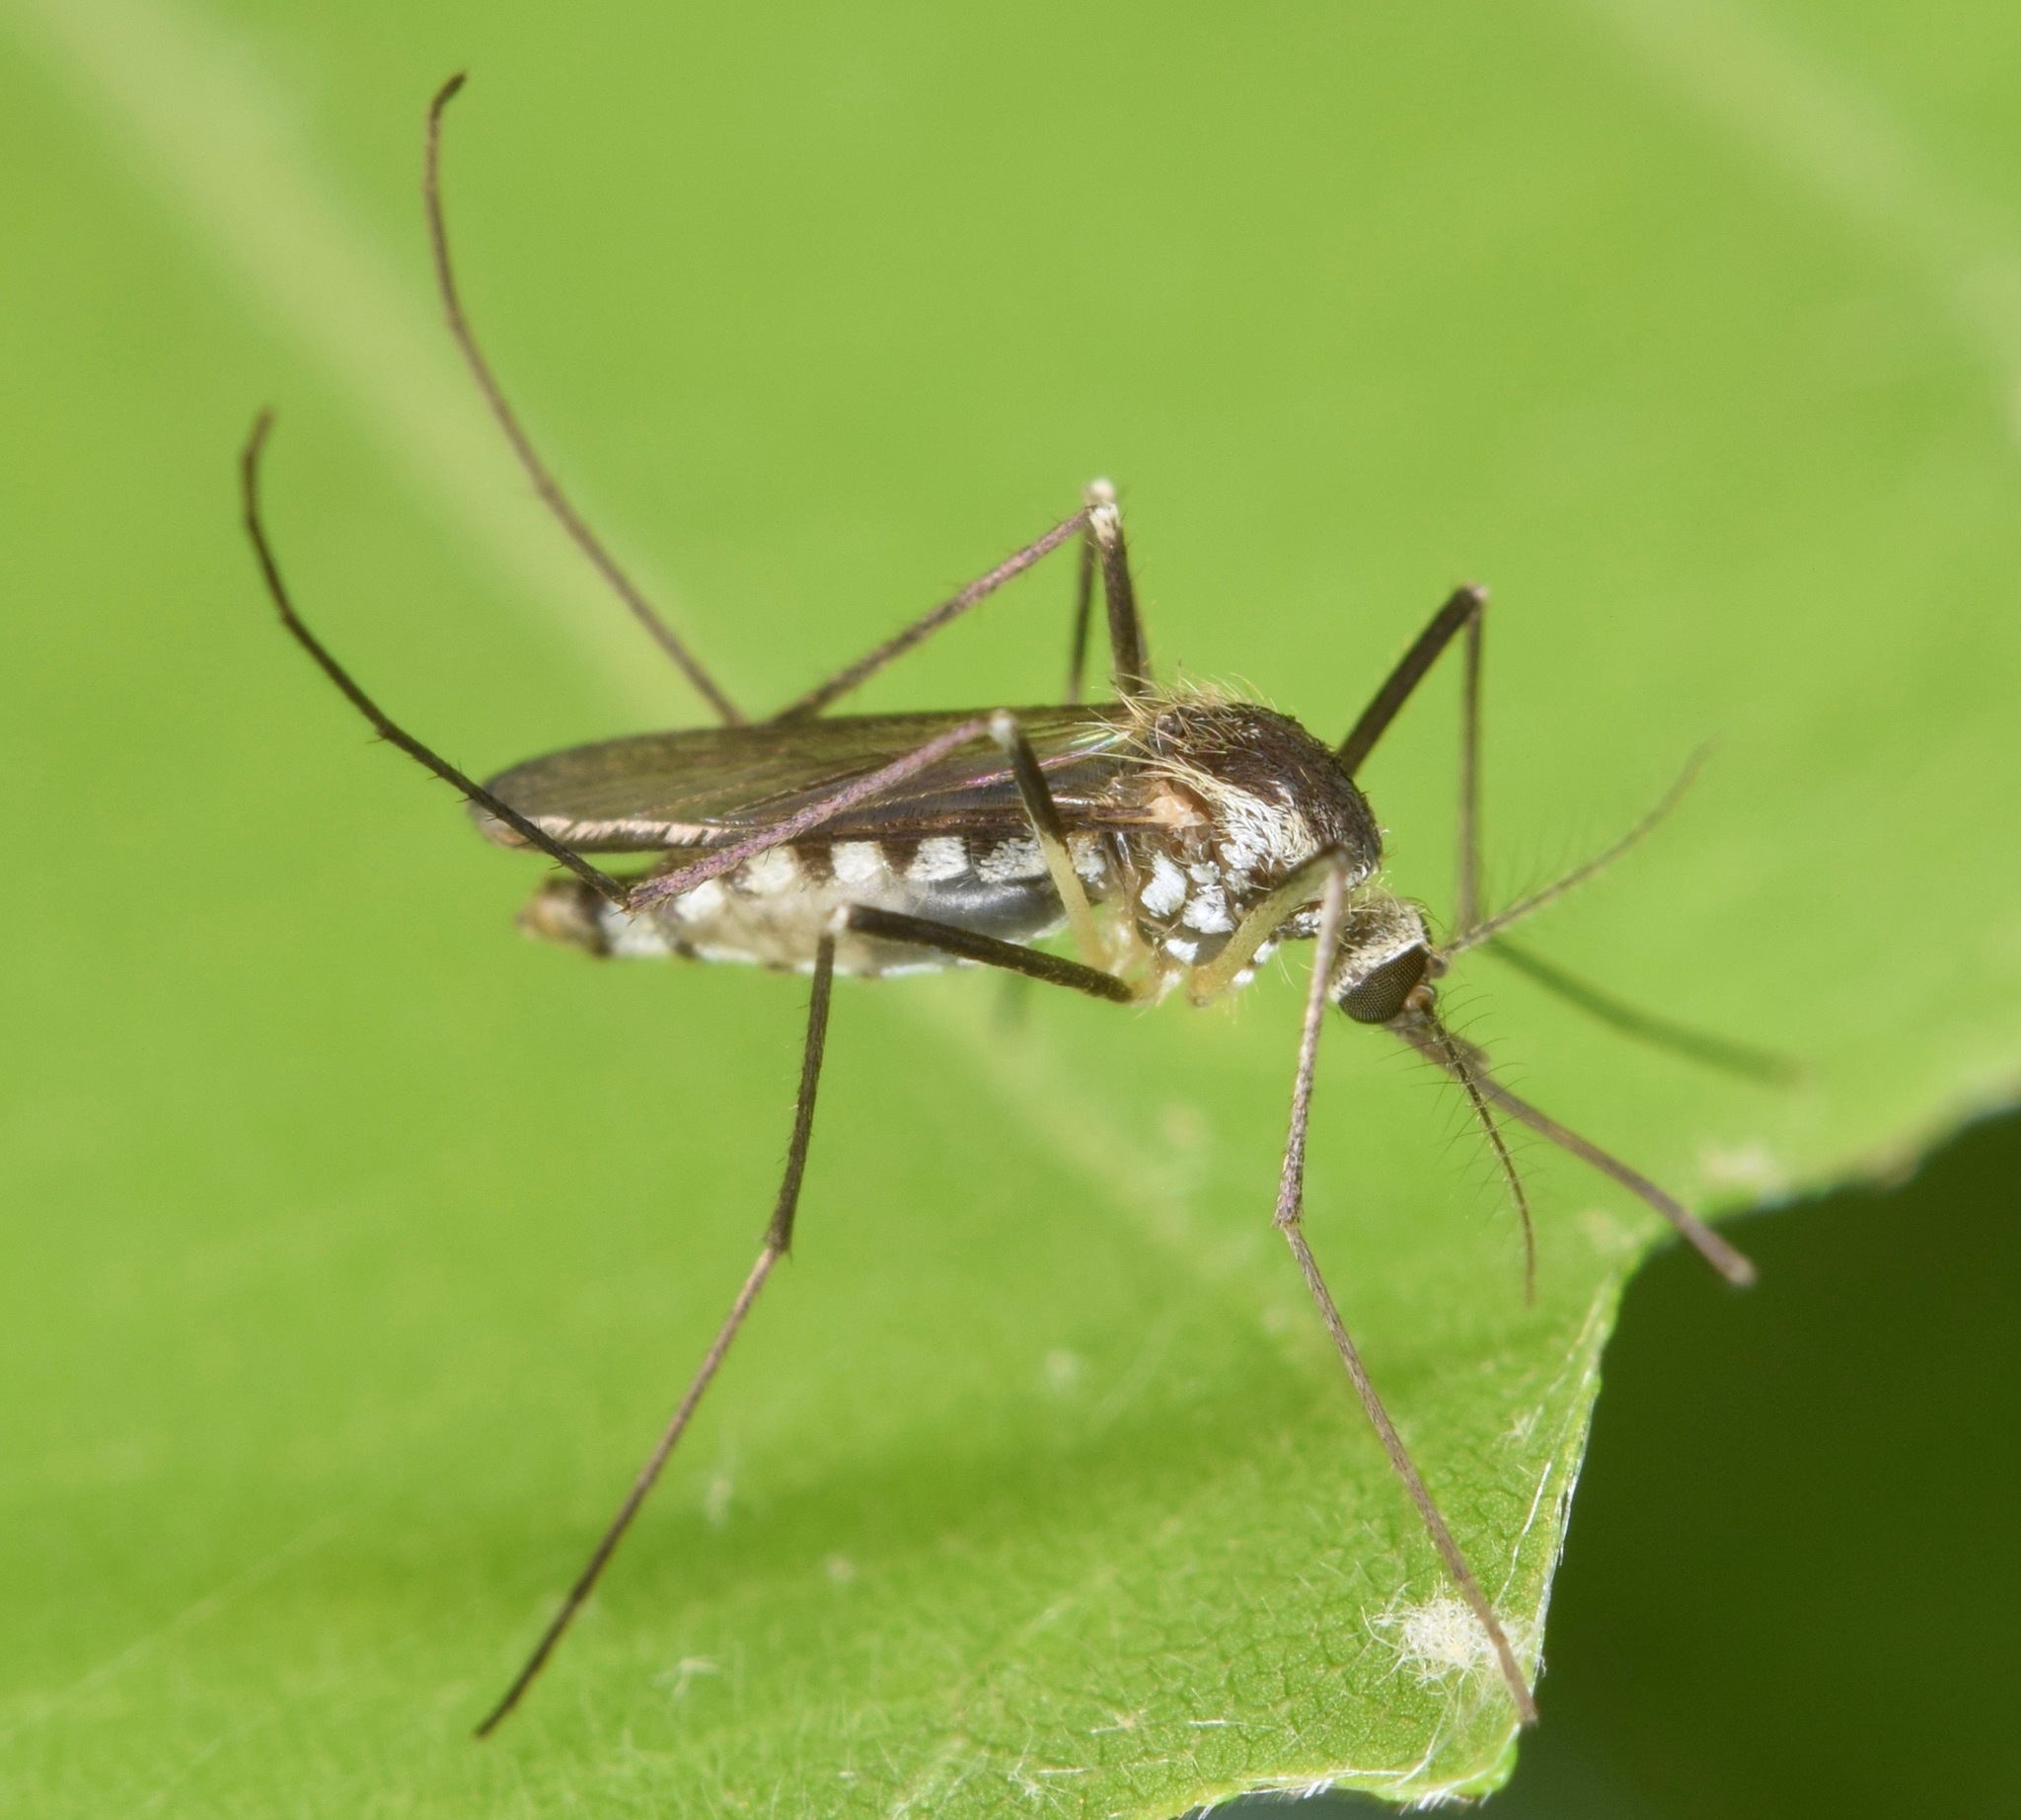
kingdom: Animalia
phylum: Arthropoda
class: Insecta
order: Diptera
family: Culicidae
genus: Aedes
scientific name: Aedes triseriatus
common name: Eastern treehole mosquito
